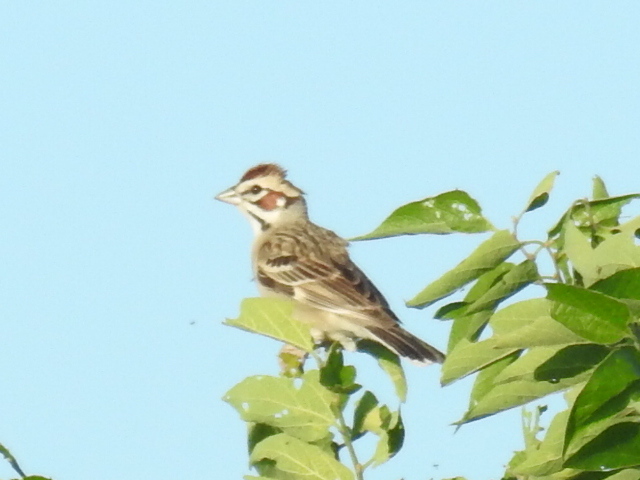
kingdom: Animalia
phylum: Chordata
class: Aves
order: Passeriformes
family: Passerellidae
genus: Chondestes
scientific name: Chondestes grammacus
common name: Lark sparrow
